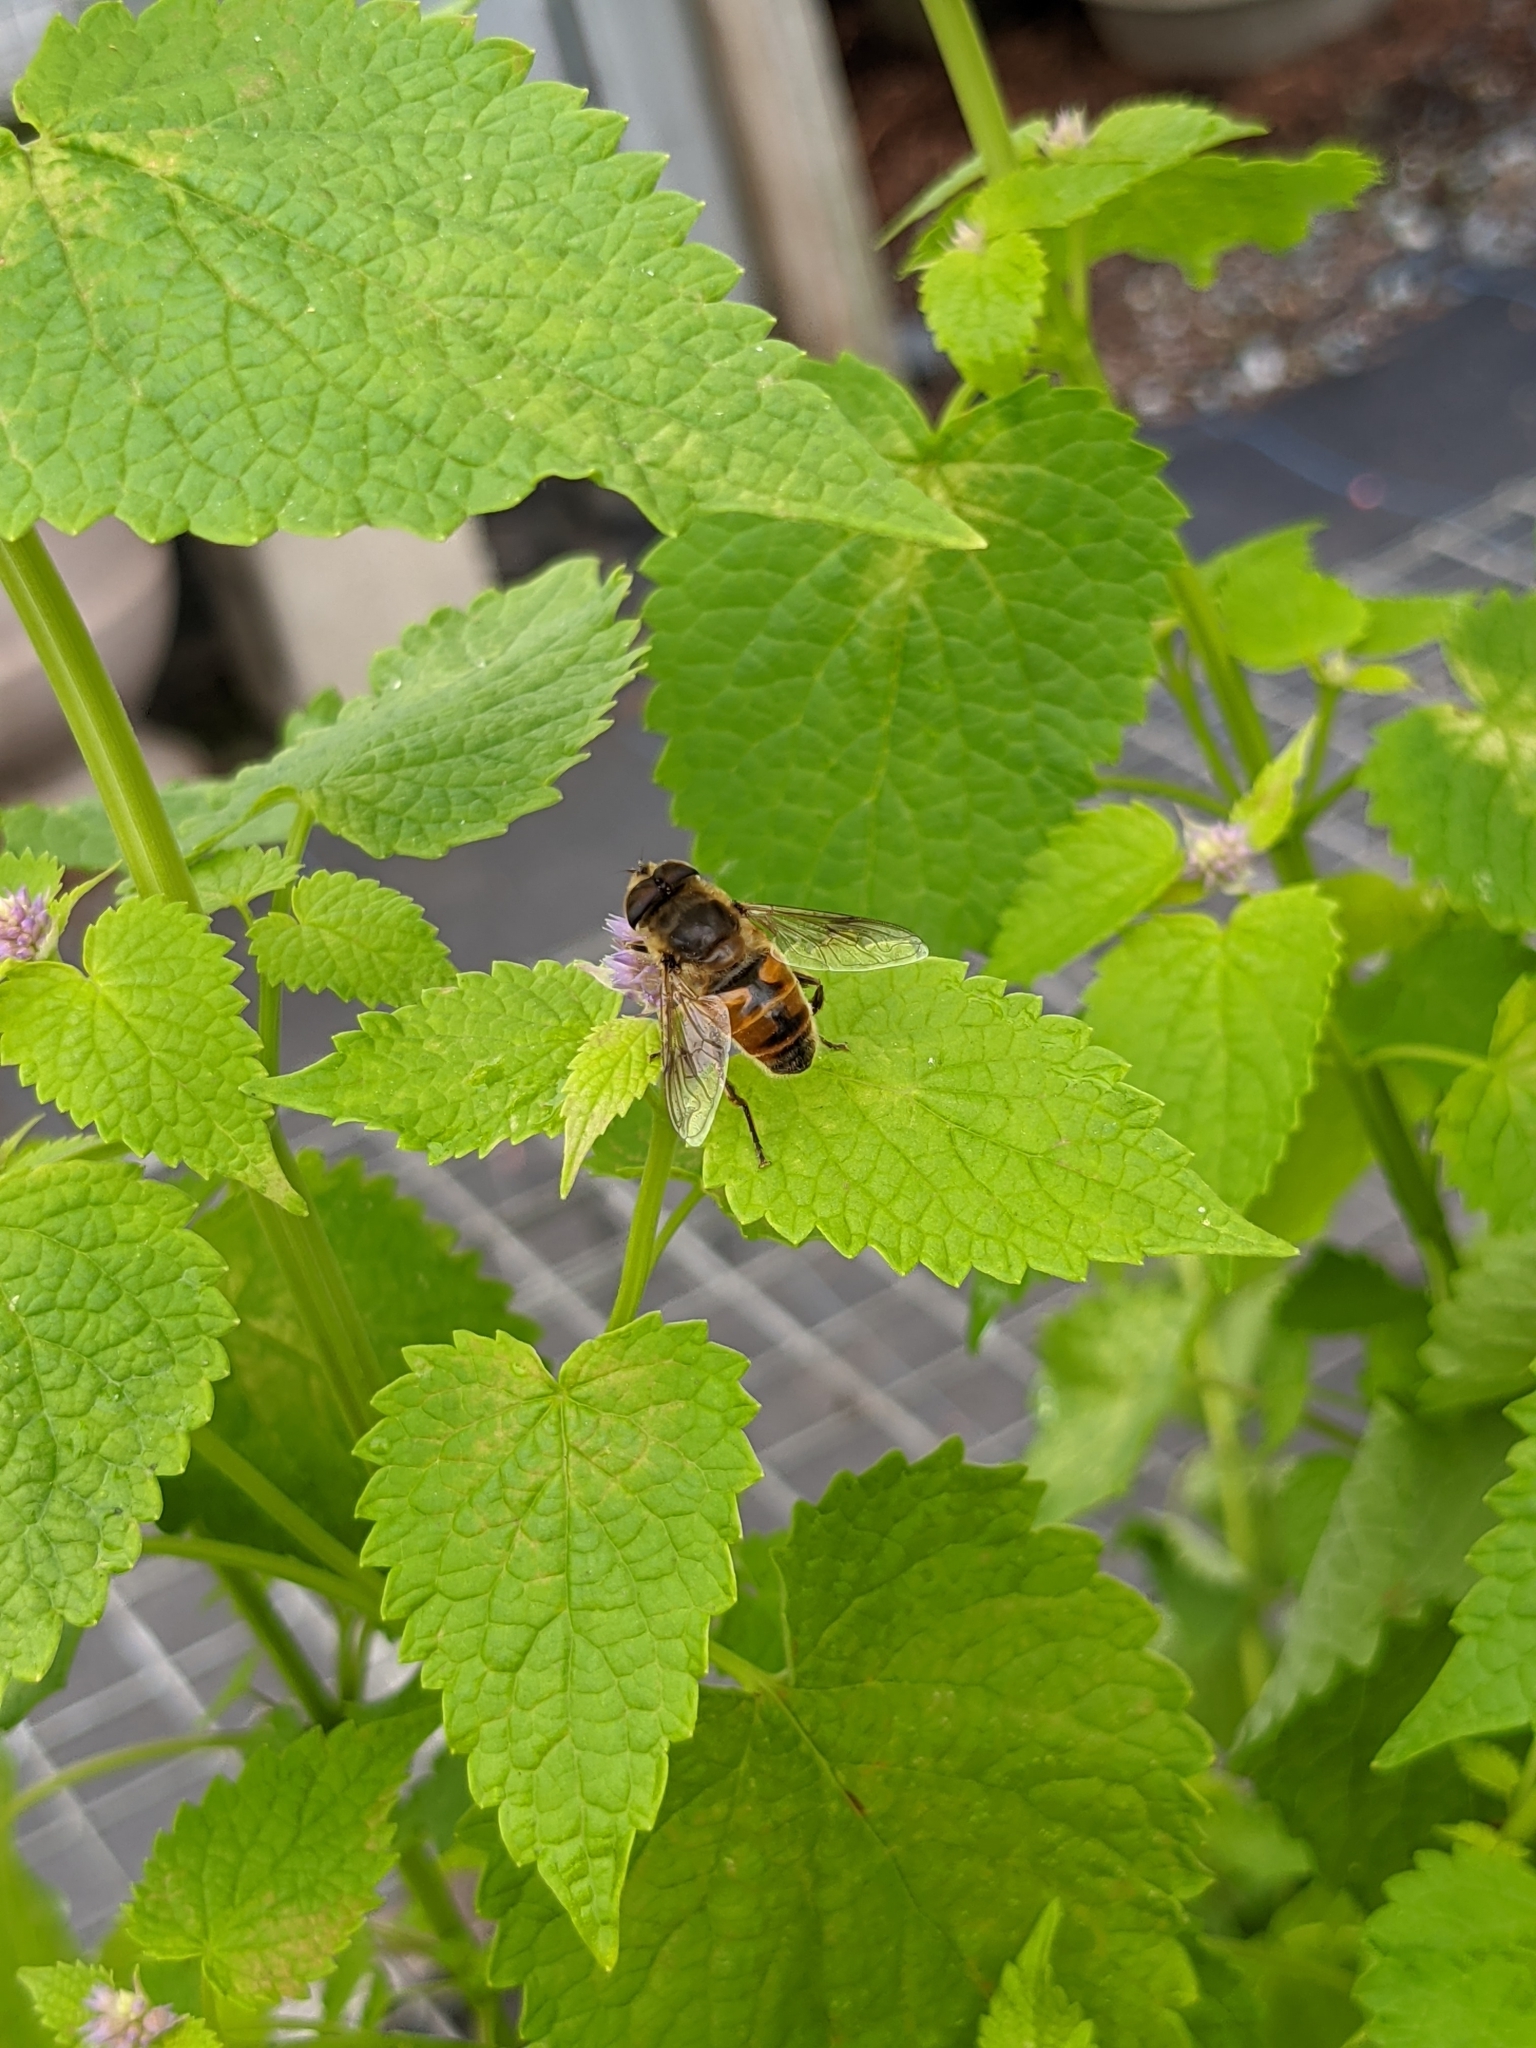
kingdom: Animalia
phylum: Arthropoda
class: Insecta
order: Diptera
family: Syrphidae
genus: Eristalis
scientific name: Eristalis tenax
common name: Drone fly
